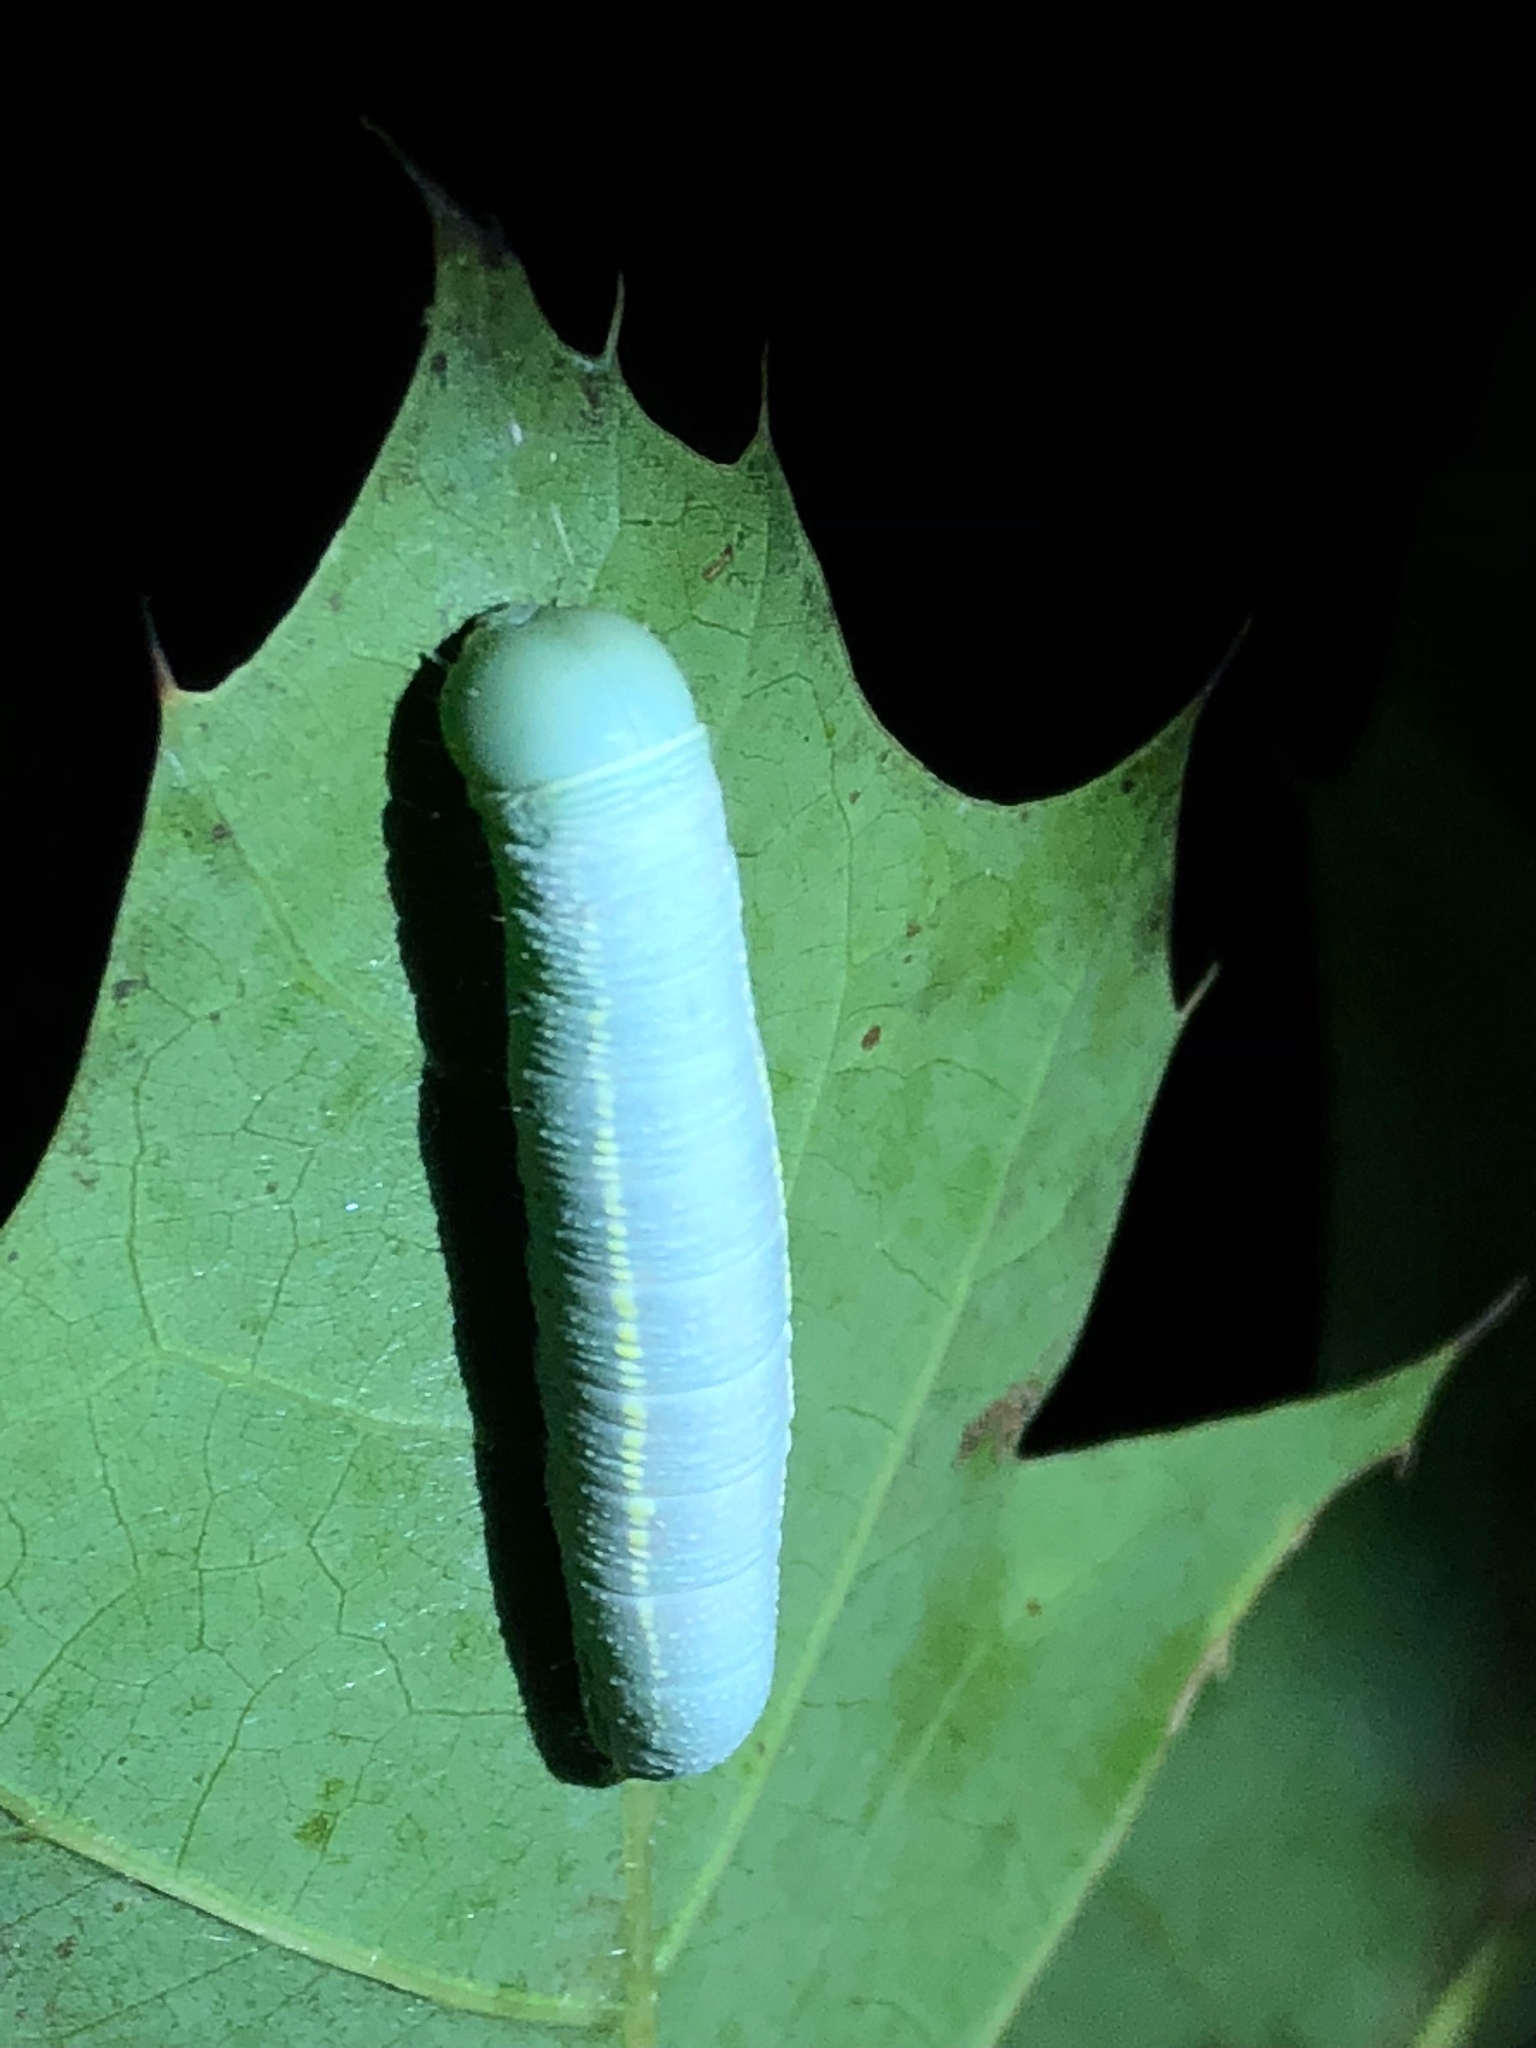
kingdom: Animalia
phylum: Arthropoda
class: Insecta
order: Lepidoptera
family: Notodontidae
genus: Nadata
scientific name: Nadata gibbosa
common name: White-dotted prominent
